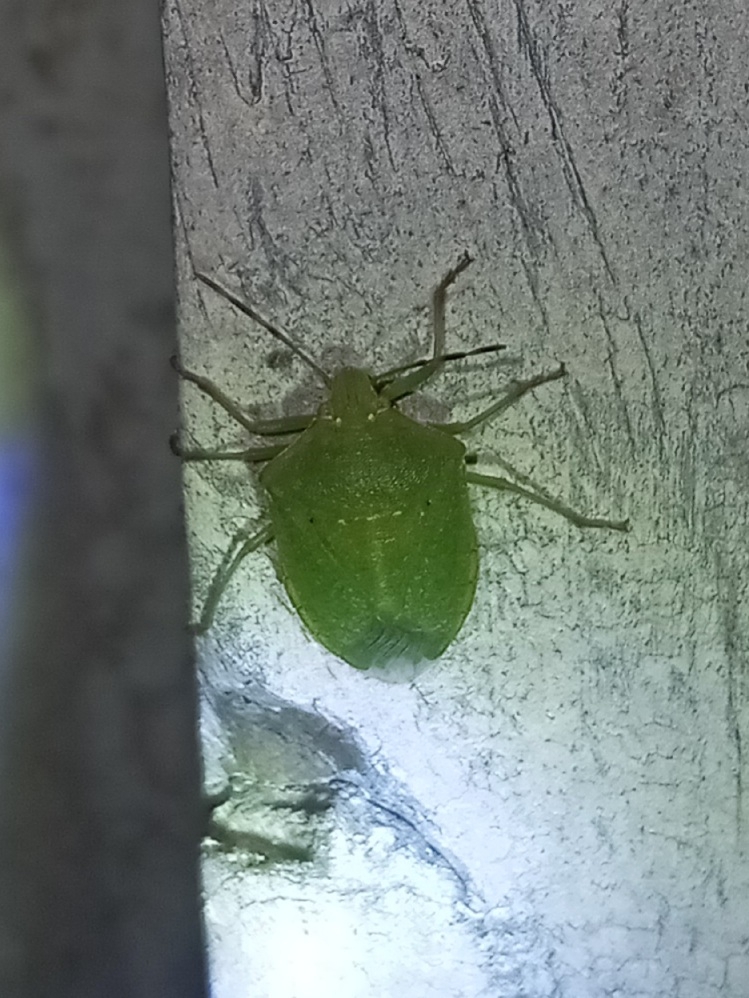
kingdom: Animalia
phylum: Arthropoda
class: Insecta
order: Hemiptera
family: Pentatomidae
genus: Nezara
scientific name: Nezara viridula
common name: Southern green stink bug
